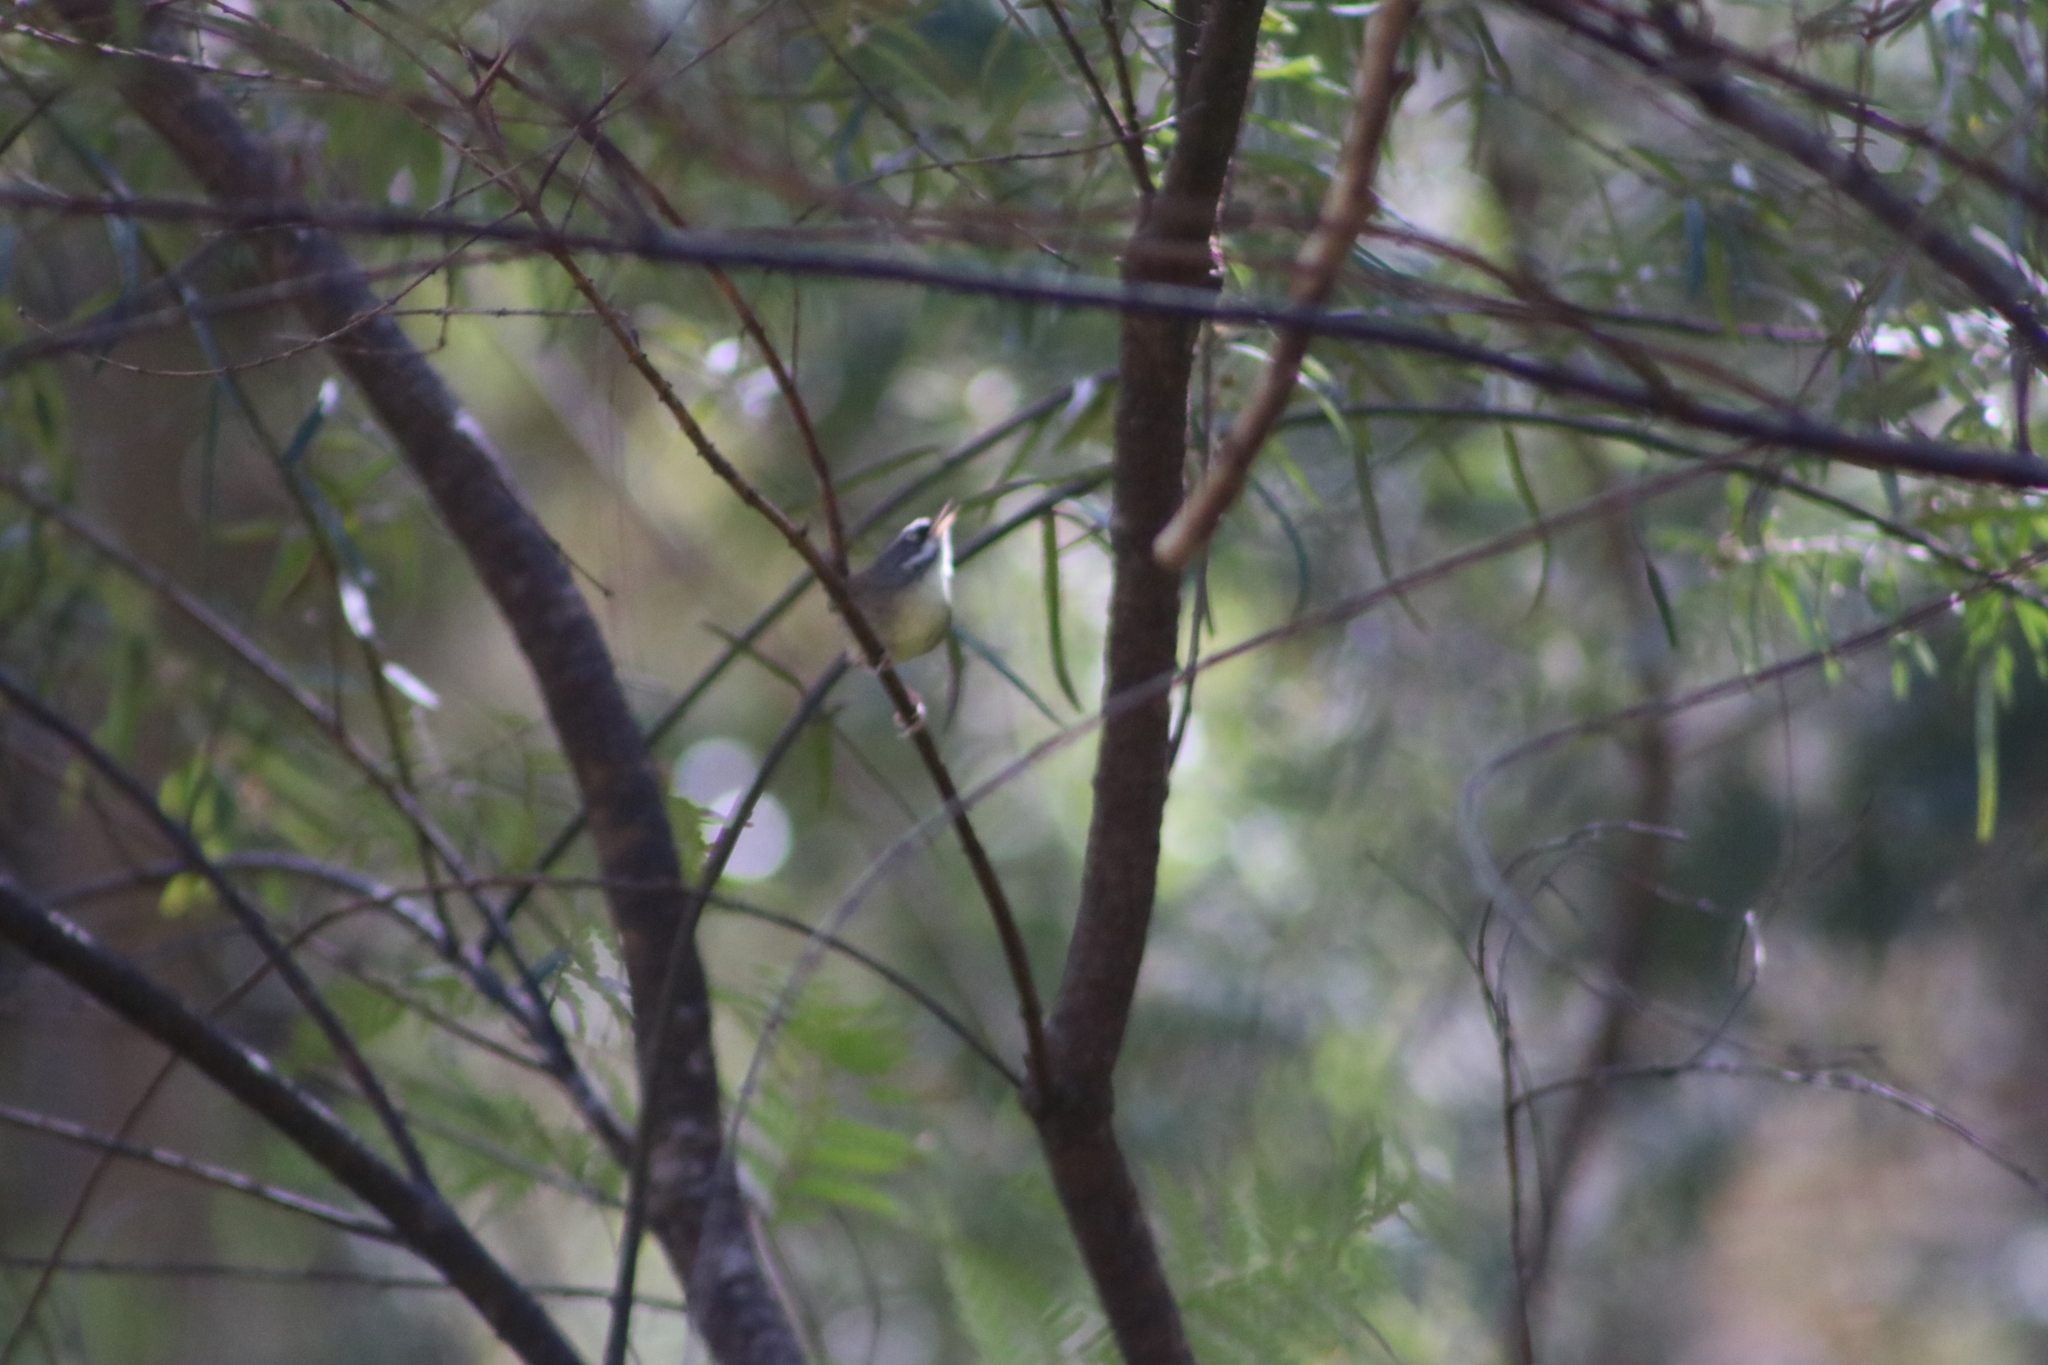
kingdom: Animalia
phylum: Chordata
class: Aves
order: Passeriformes
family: Acanthizidae
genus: Sericornis
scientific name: Sericornis frontalis
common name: White-browed scrubwren
